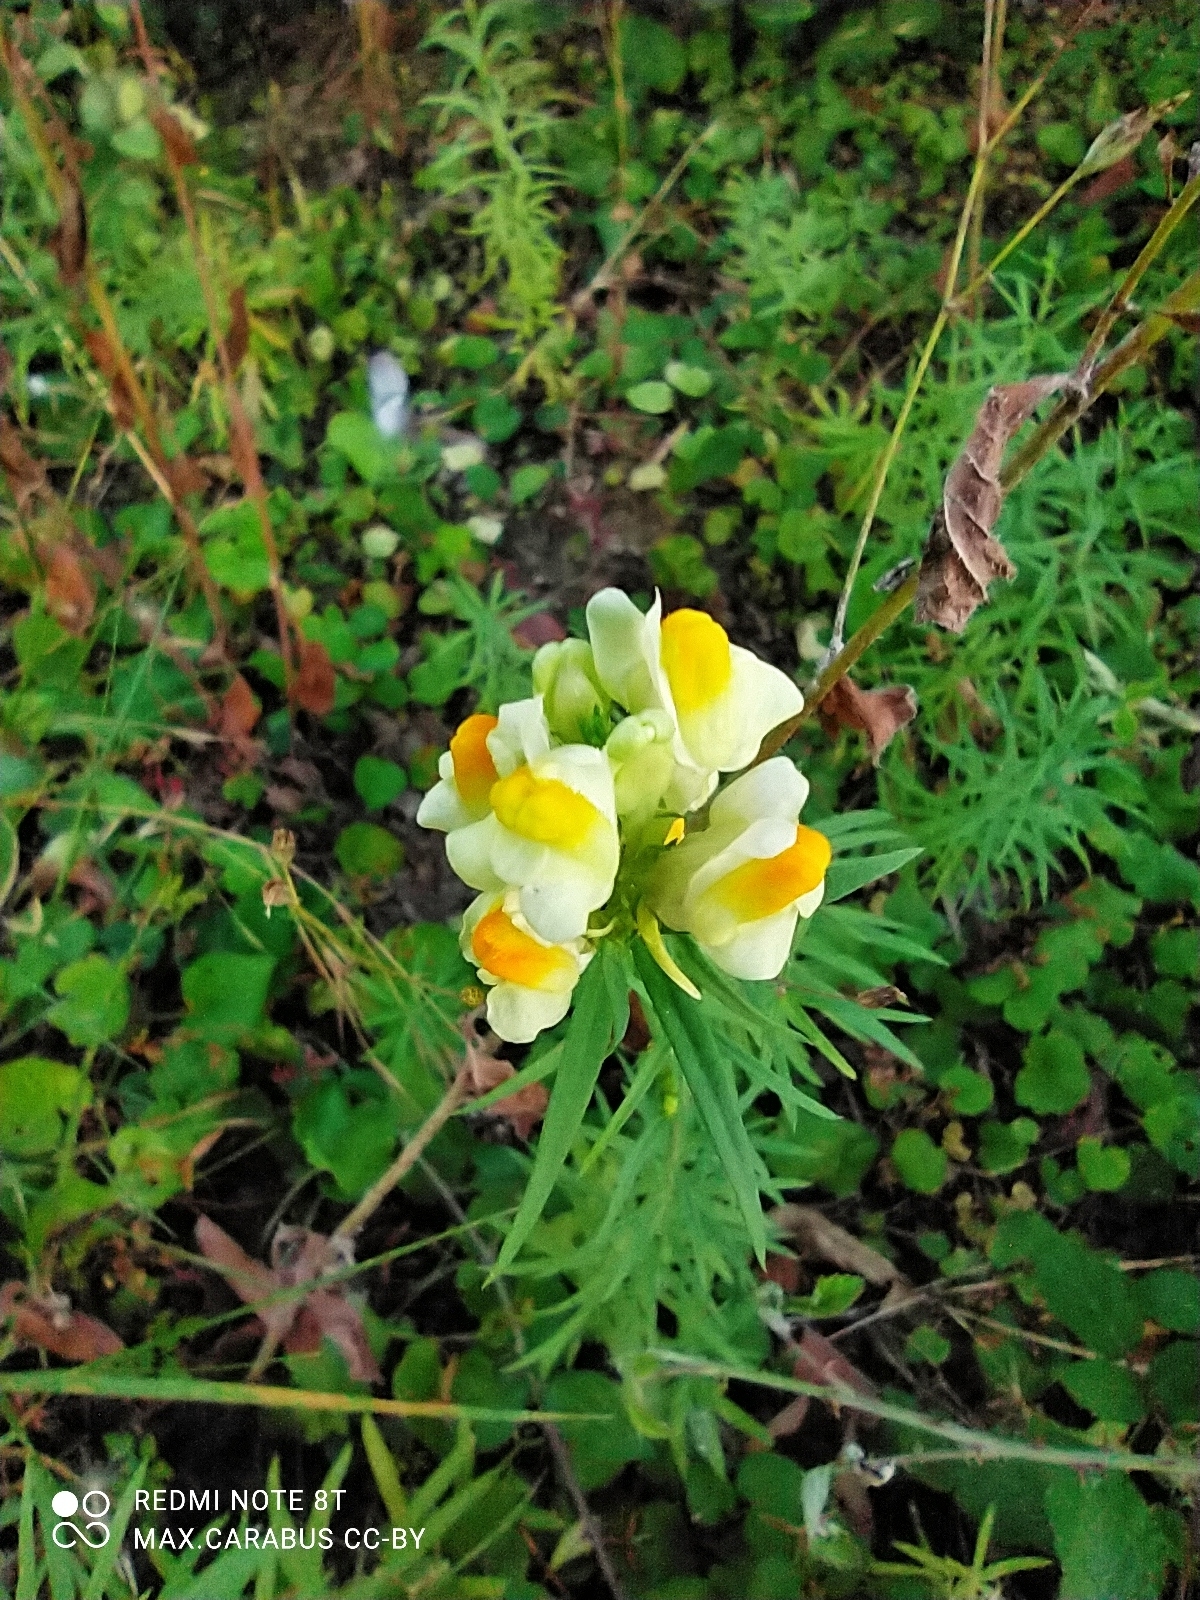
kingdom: Plantae
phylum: Tracheophyta
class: Magnoliopsida
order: Lamiales
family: Plantaginaceae
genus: Linaria
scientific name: Linaria vulgaris
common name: Butter and eggs
